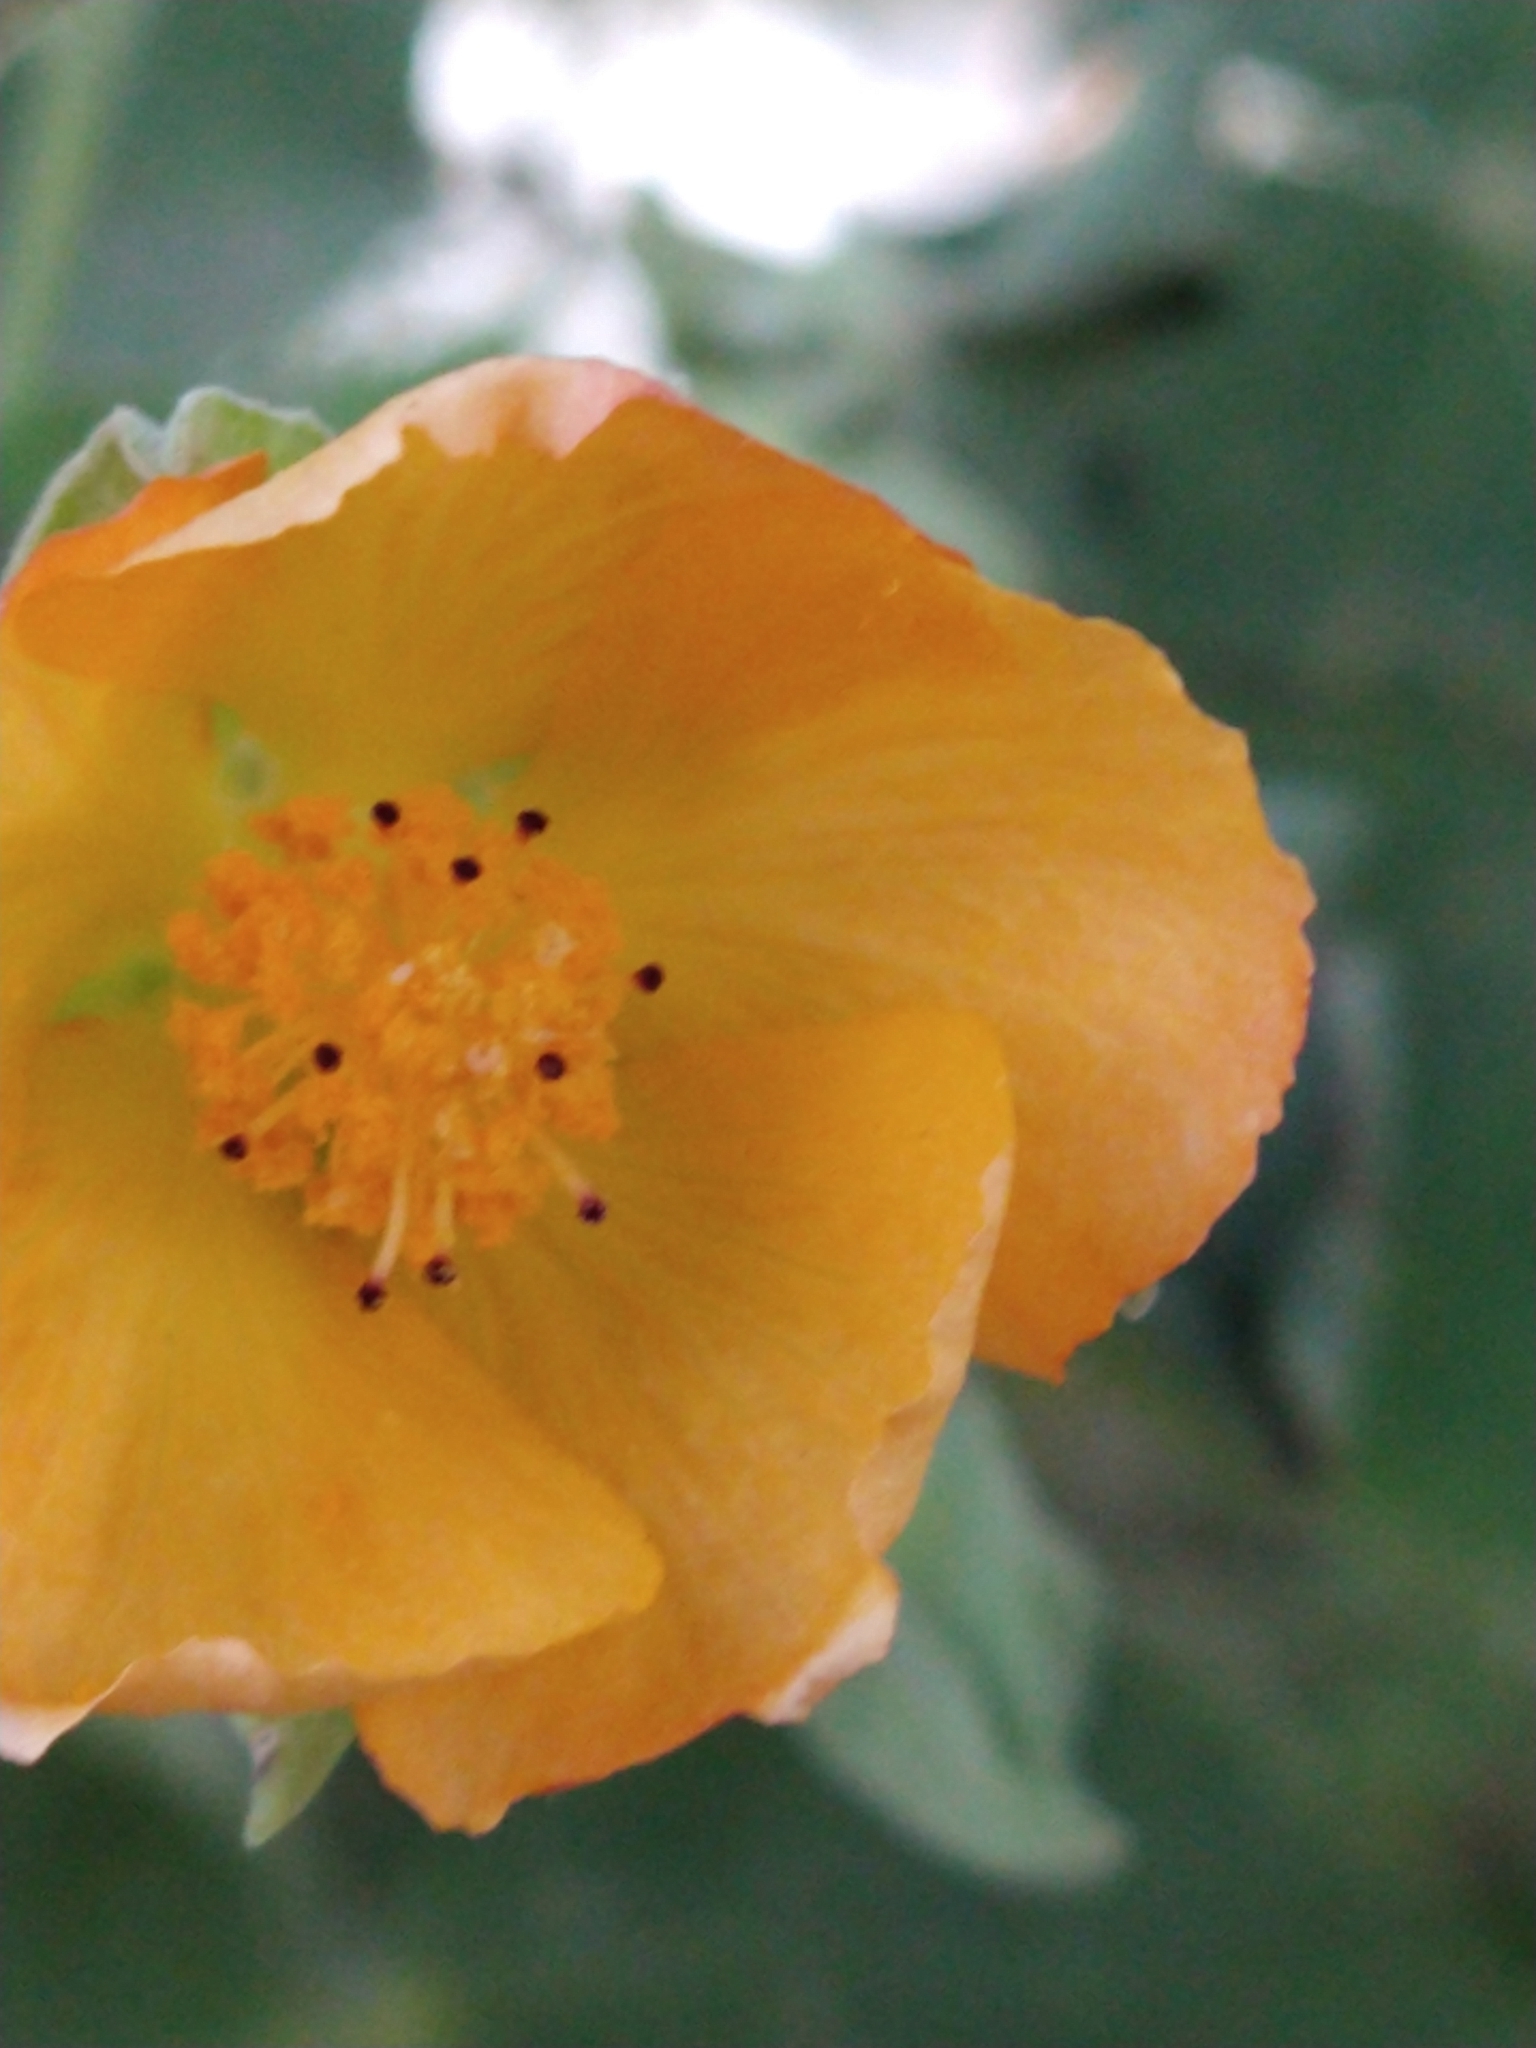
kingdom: Plantae
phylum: Tracheophyta
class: Magnoliopsida
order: Malvales
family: Malvaceae
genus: Abutilon
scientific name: Abutilon grandifolium
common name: Hairy abutilon
